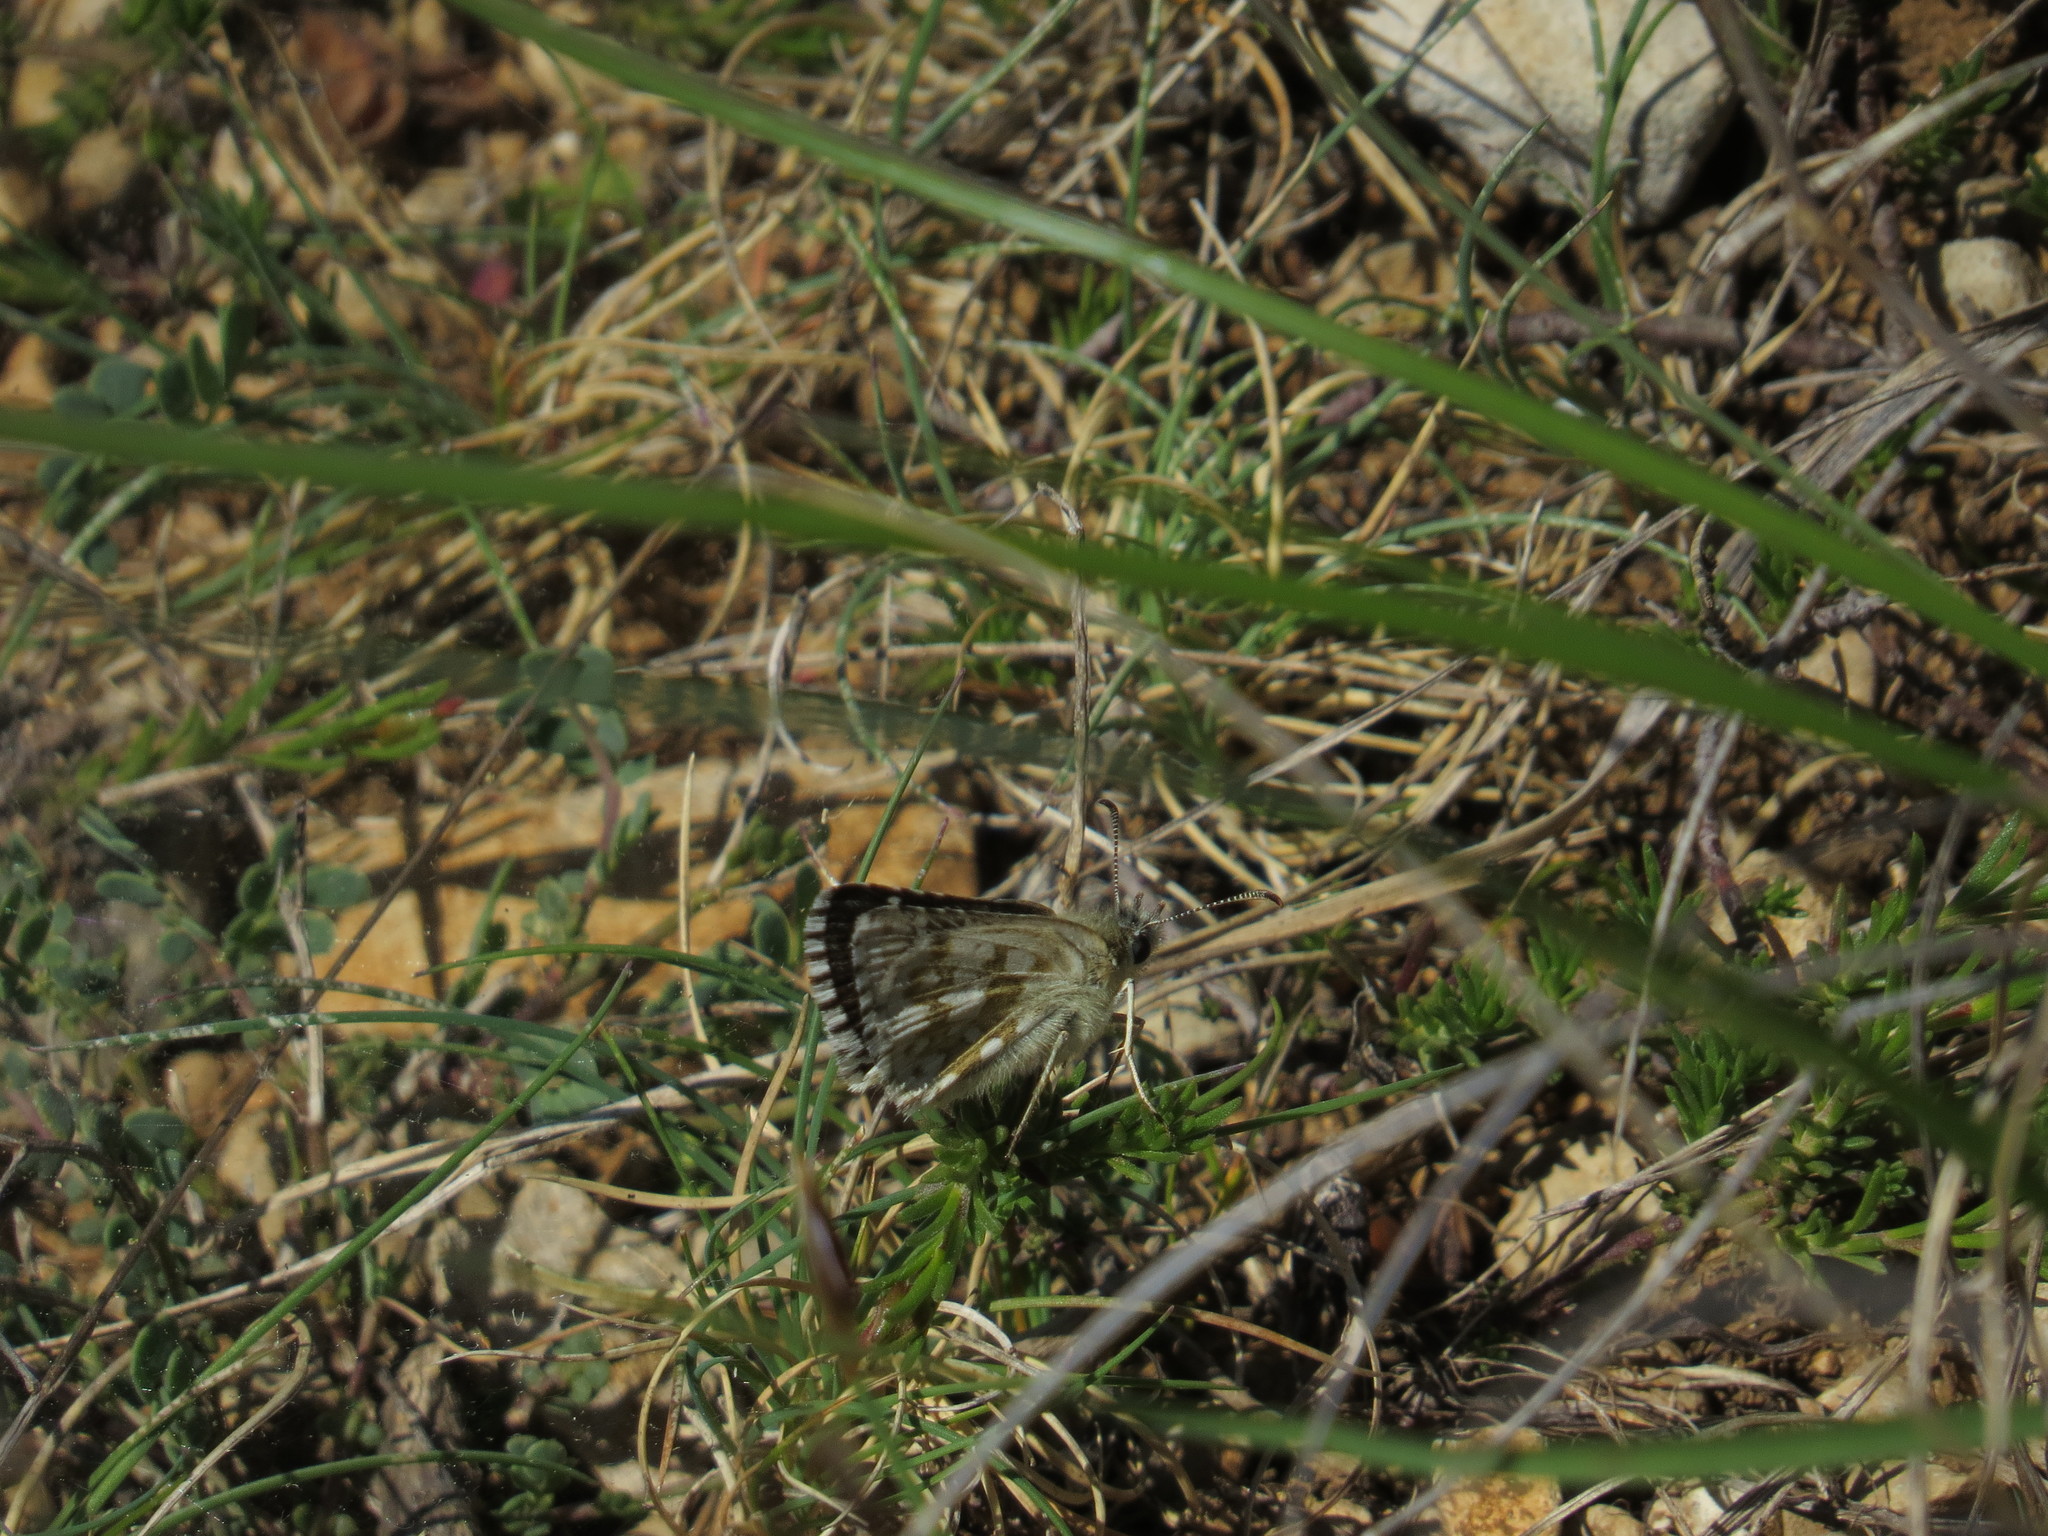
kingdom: Animalia
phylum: Arthropoda
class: Insecta
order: Lepidoptera
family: Hesperiidae
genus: Pyrgus
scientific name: Pyrgus fritillarius
